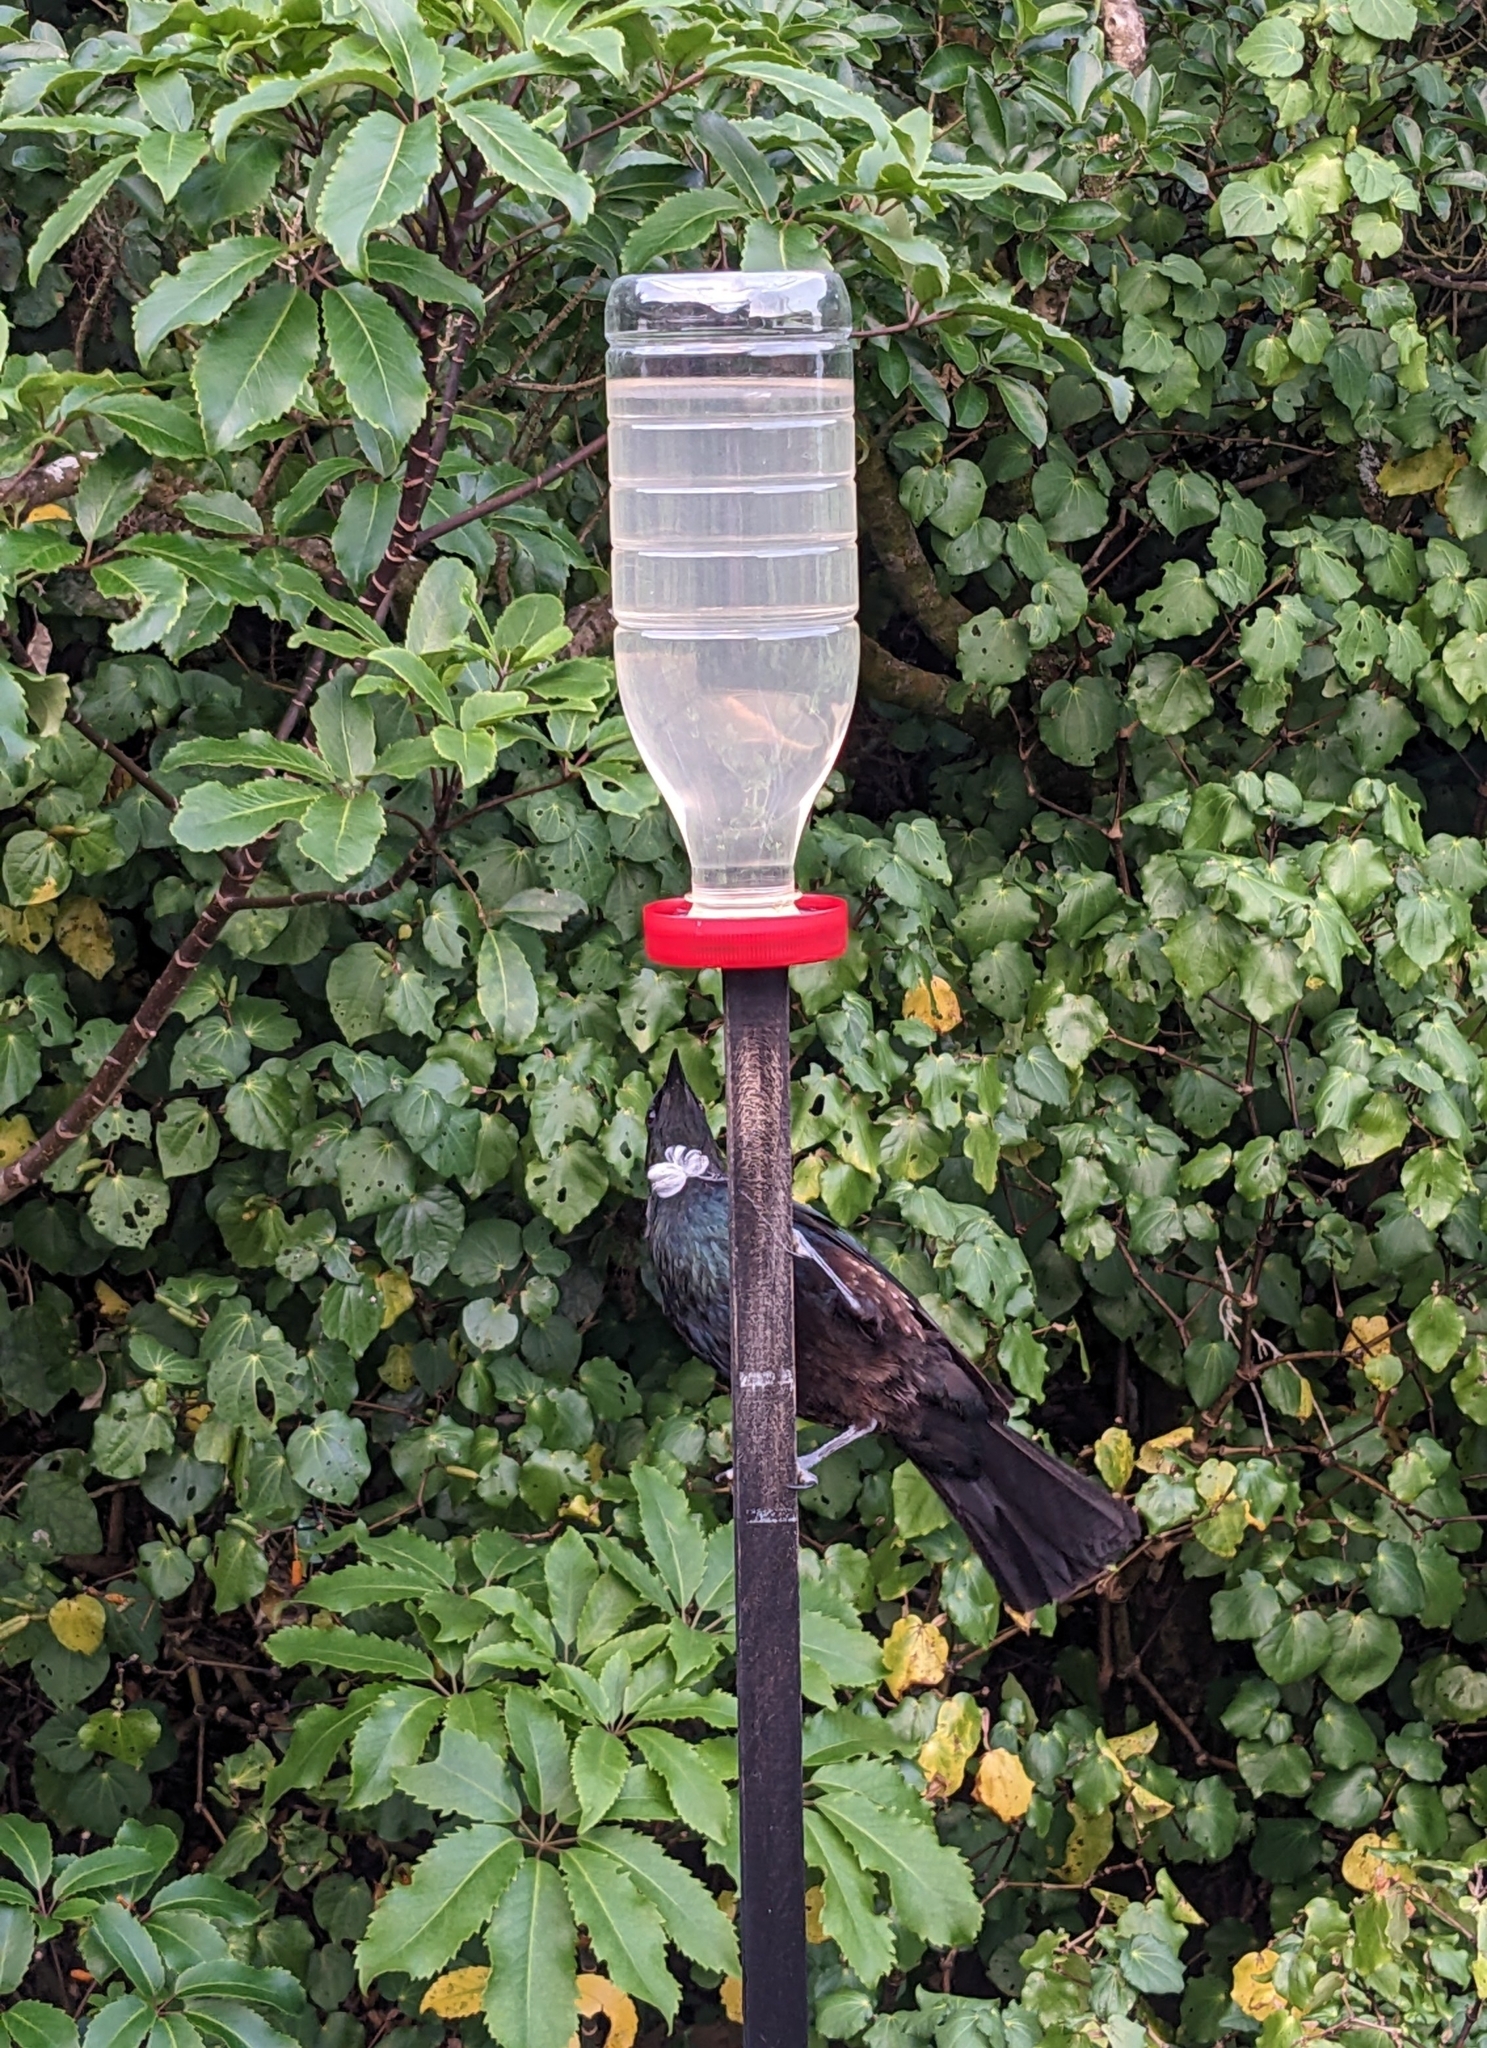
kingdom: Animalia
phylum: Chordata
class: Aves
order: Passeriformes
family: Meliphagidae
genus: Prosthemadera
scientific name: Prosthemadera novaeseelandiae
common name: Tui
